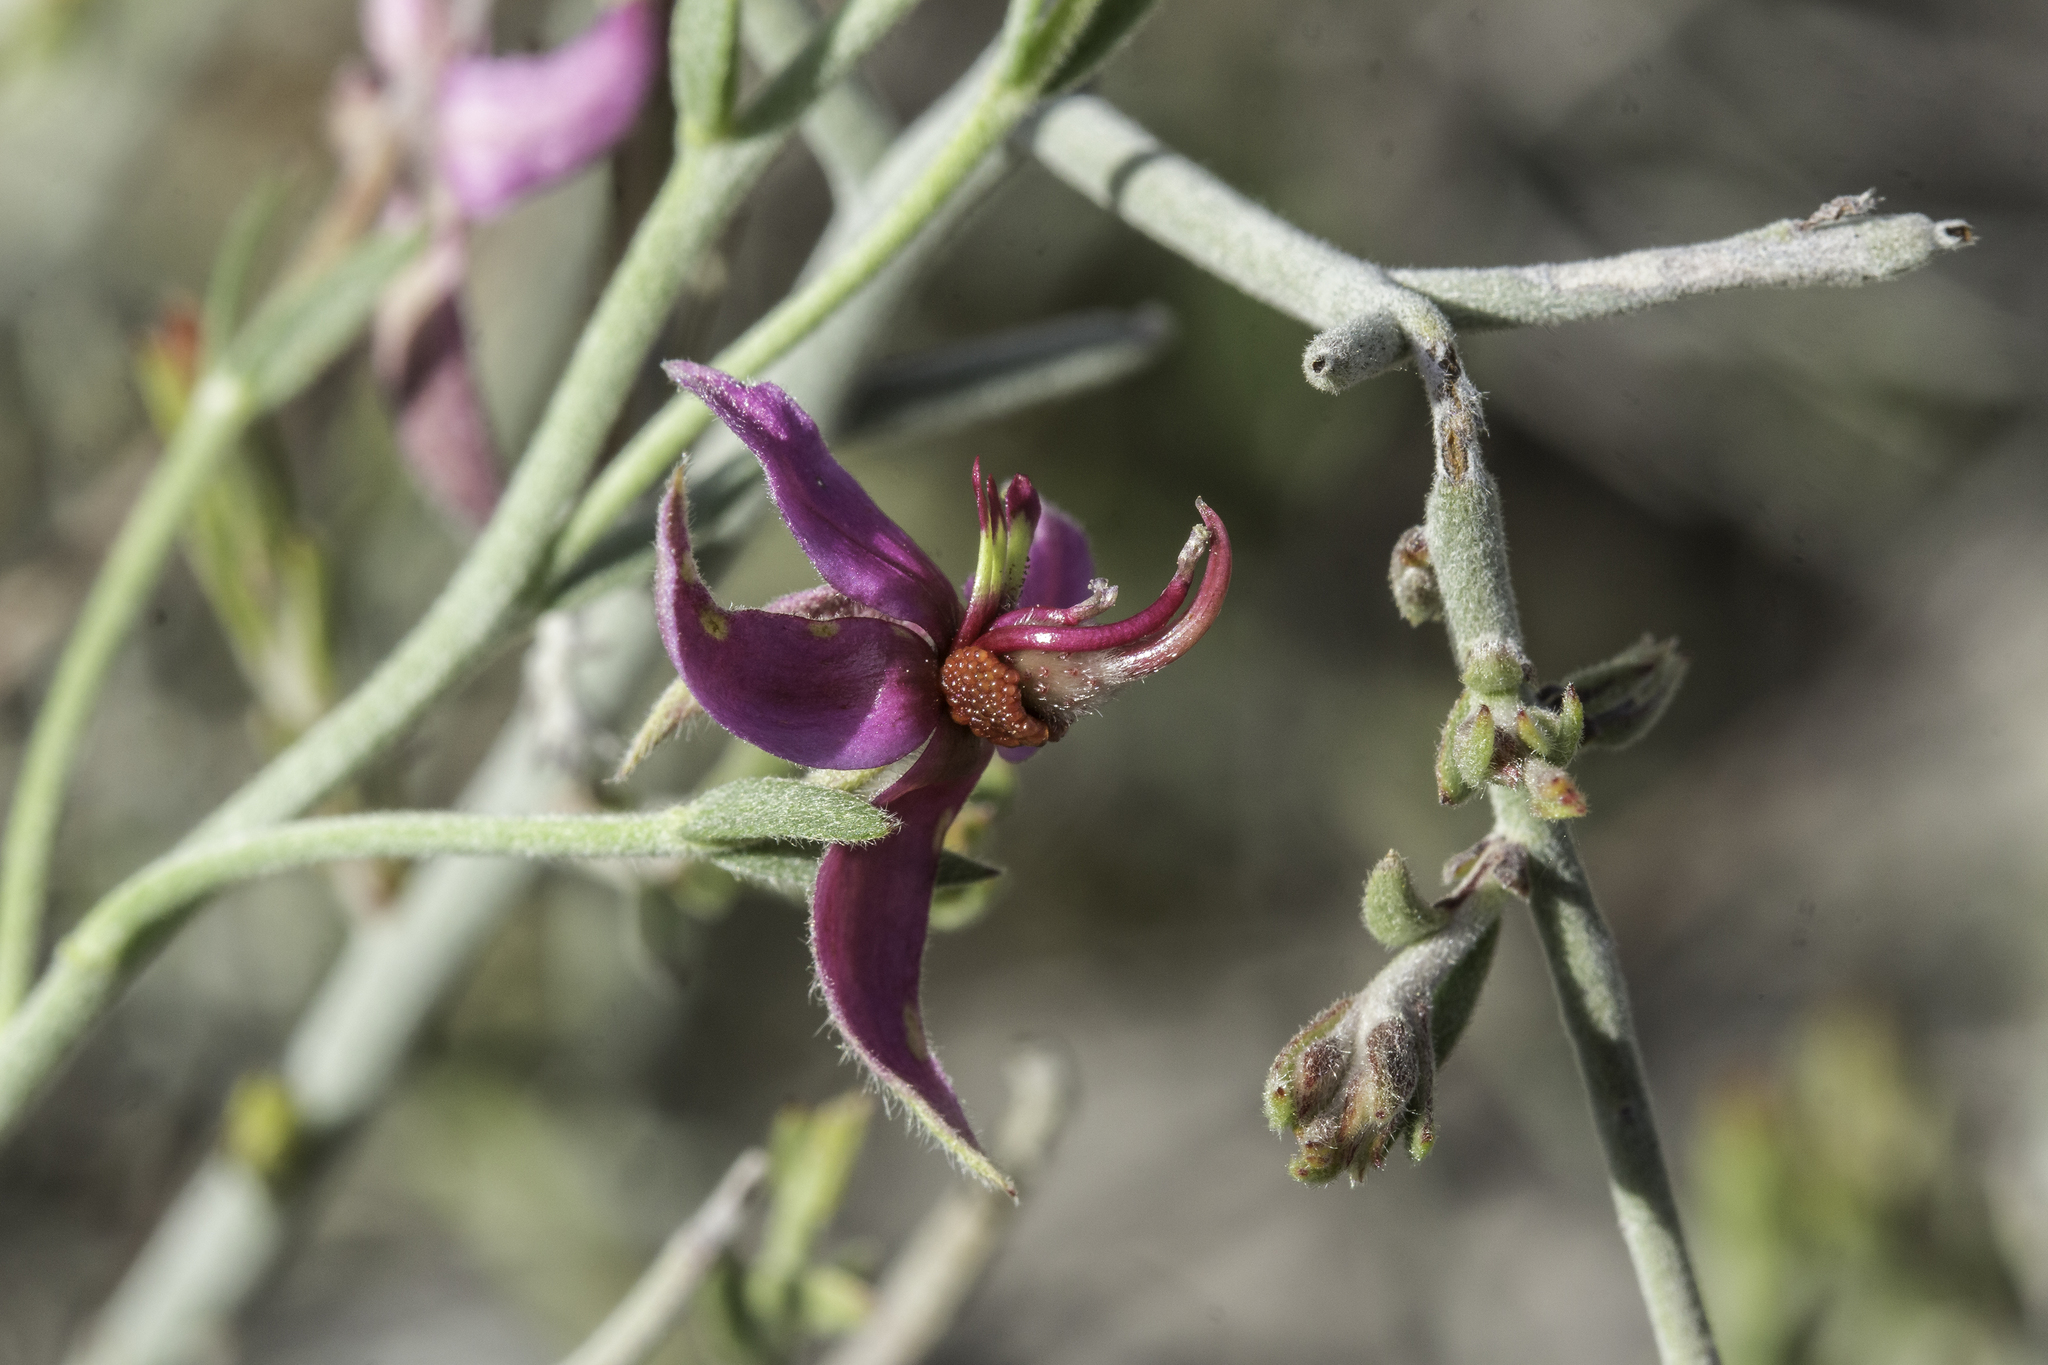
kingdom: Plantae
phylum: Tracheophyta
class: Magnoliopsida
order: Zygophyllales
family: Krameriaceae
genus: Krameria
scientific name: Krameria bicolor
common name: White ratany
